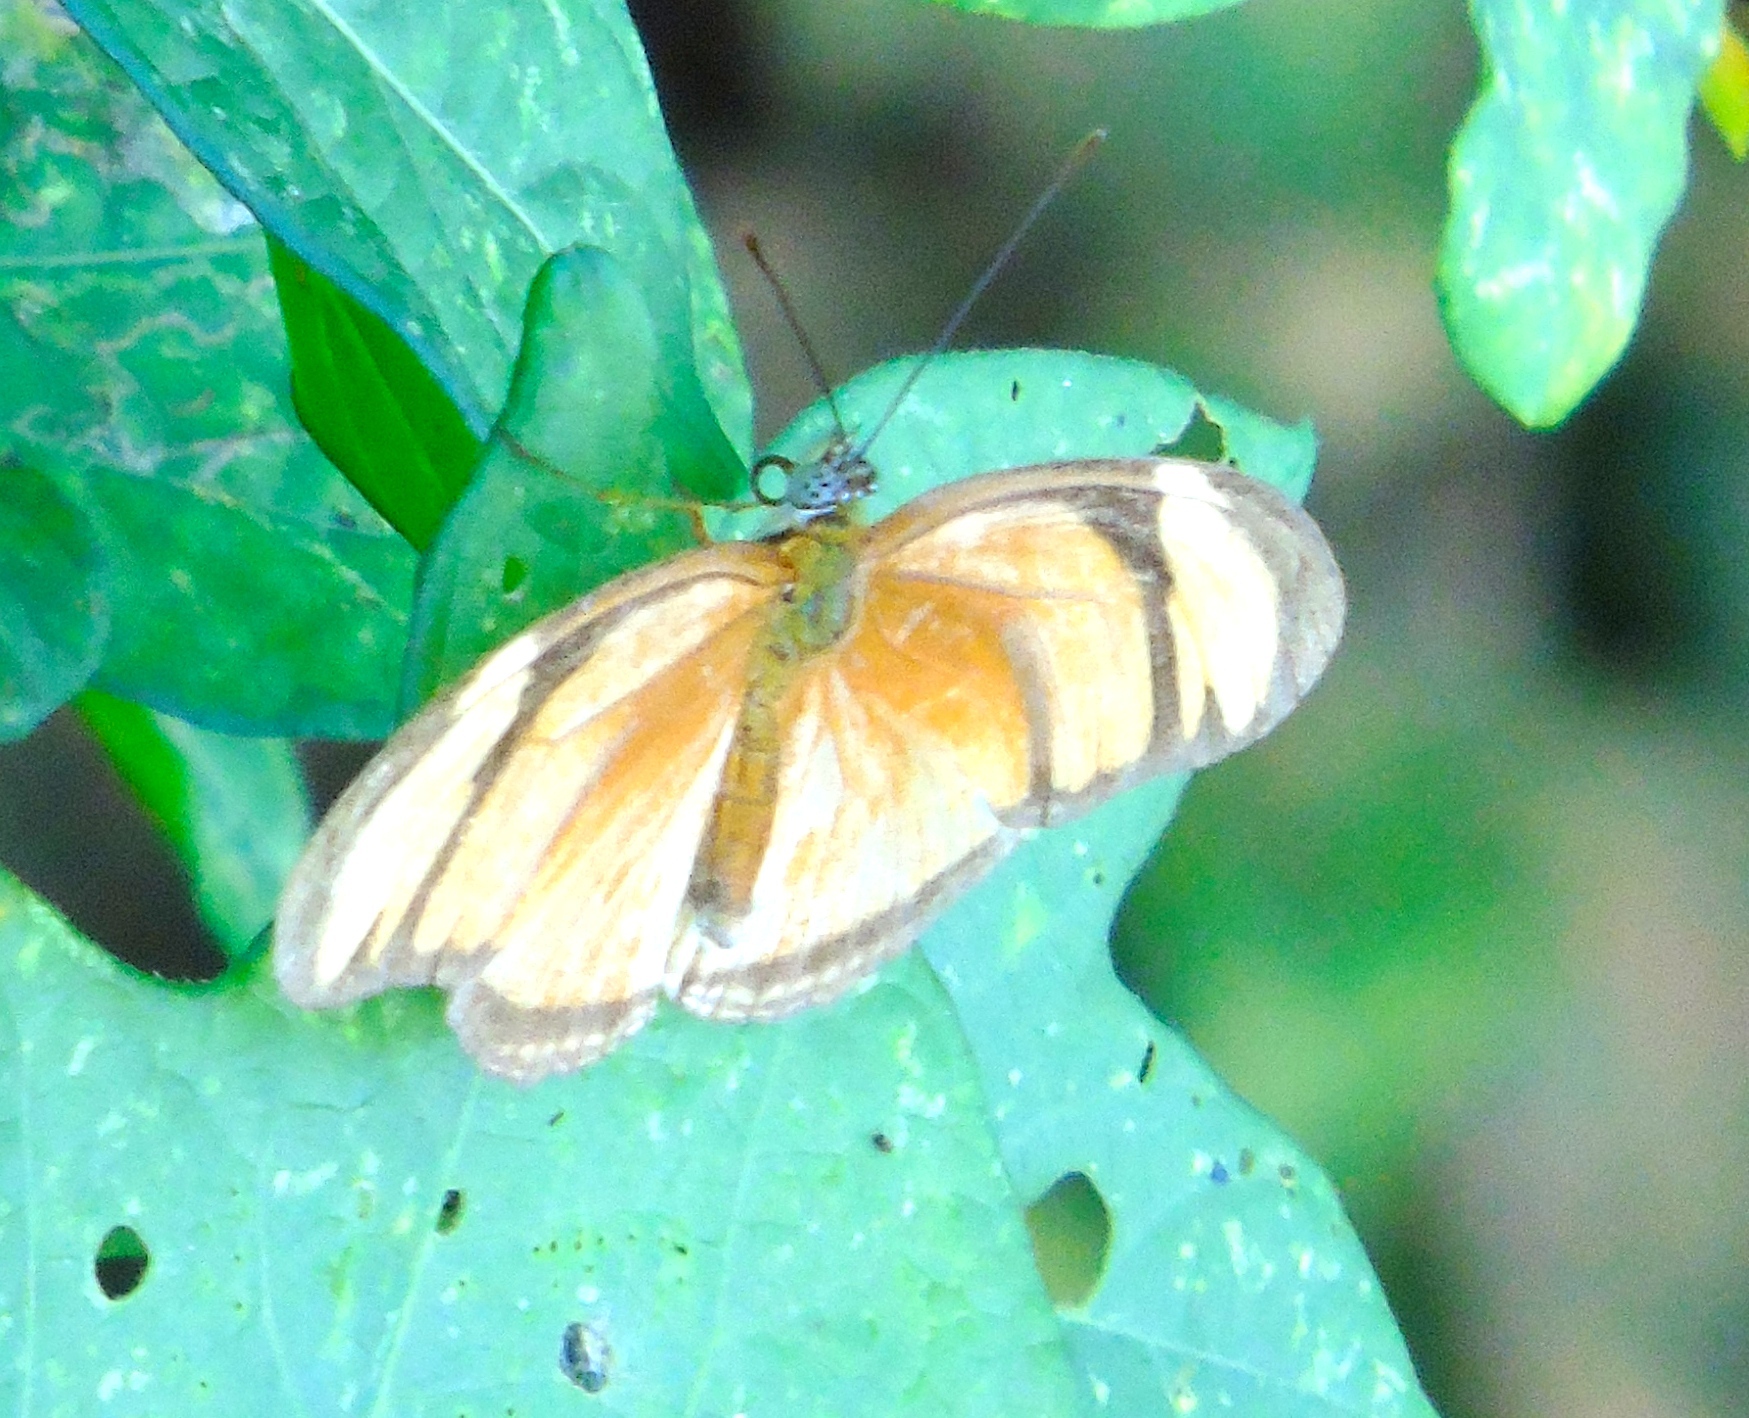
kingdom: Animalia
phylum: Arthropoda
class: Insecta
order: Lepidoptera
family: Nymphalidae
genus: Dryas
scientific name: Dryas iulia
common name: Flambeau
